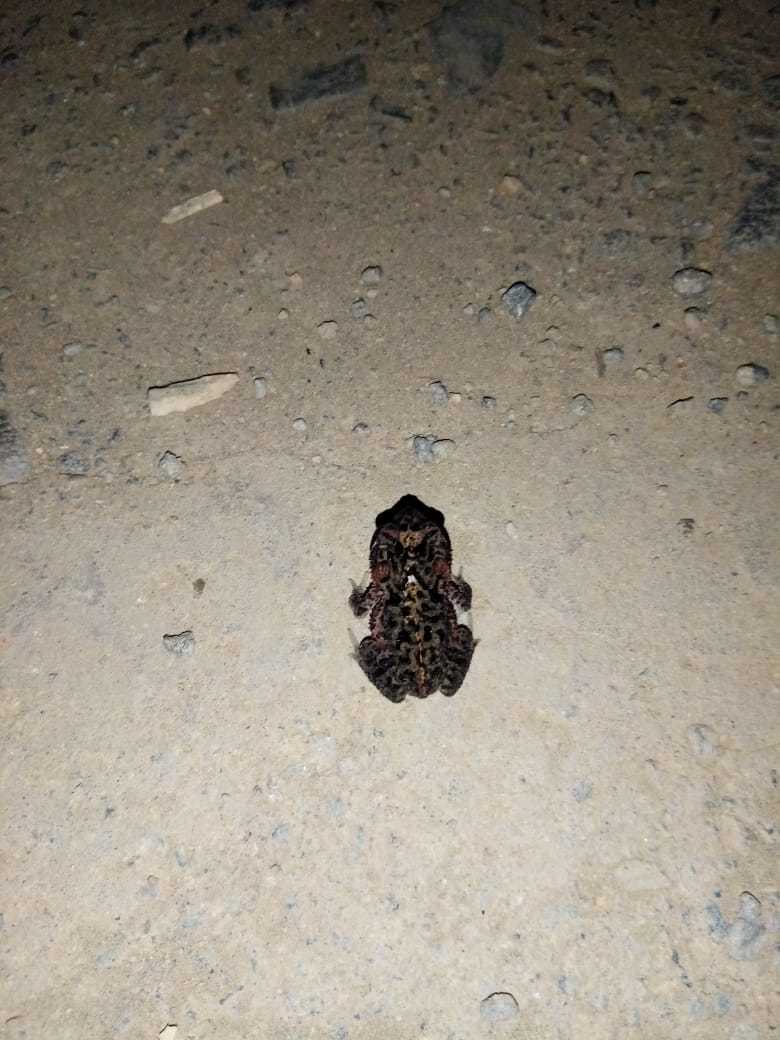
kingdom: Animalia
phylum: Chordata
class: Amphibia
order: Anura
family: Bufonidae
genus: Incilius
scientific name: Incilius coccifer
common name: Southern round-gland toad
